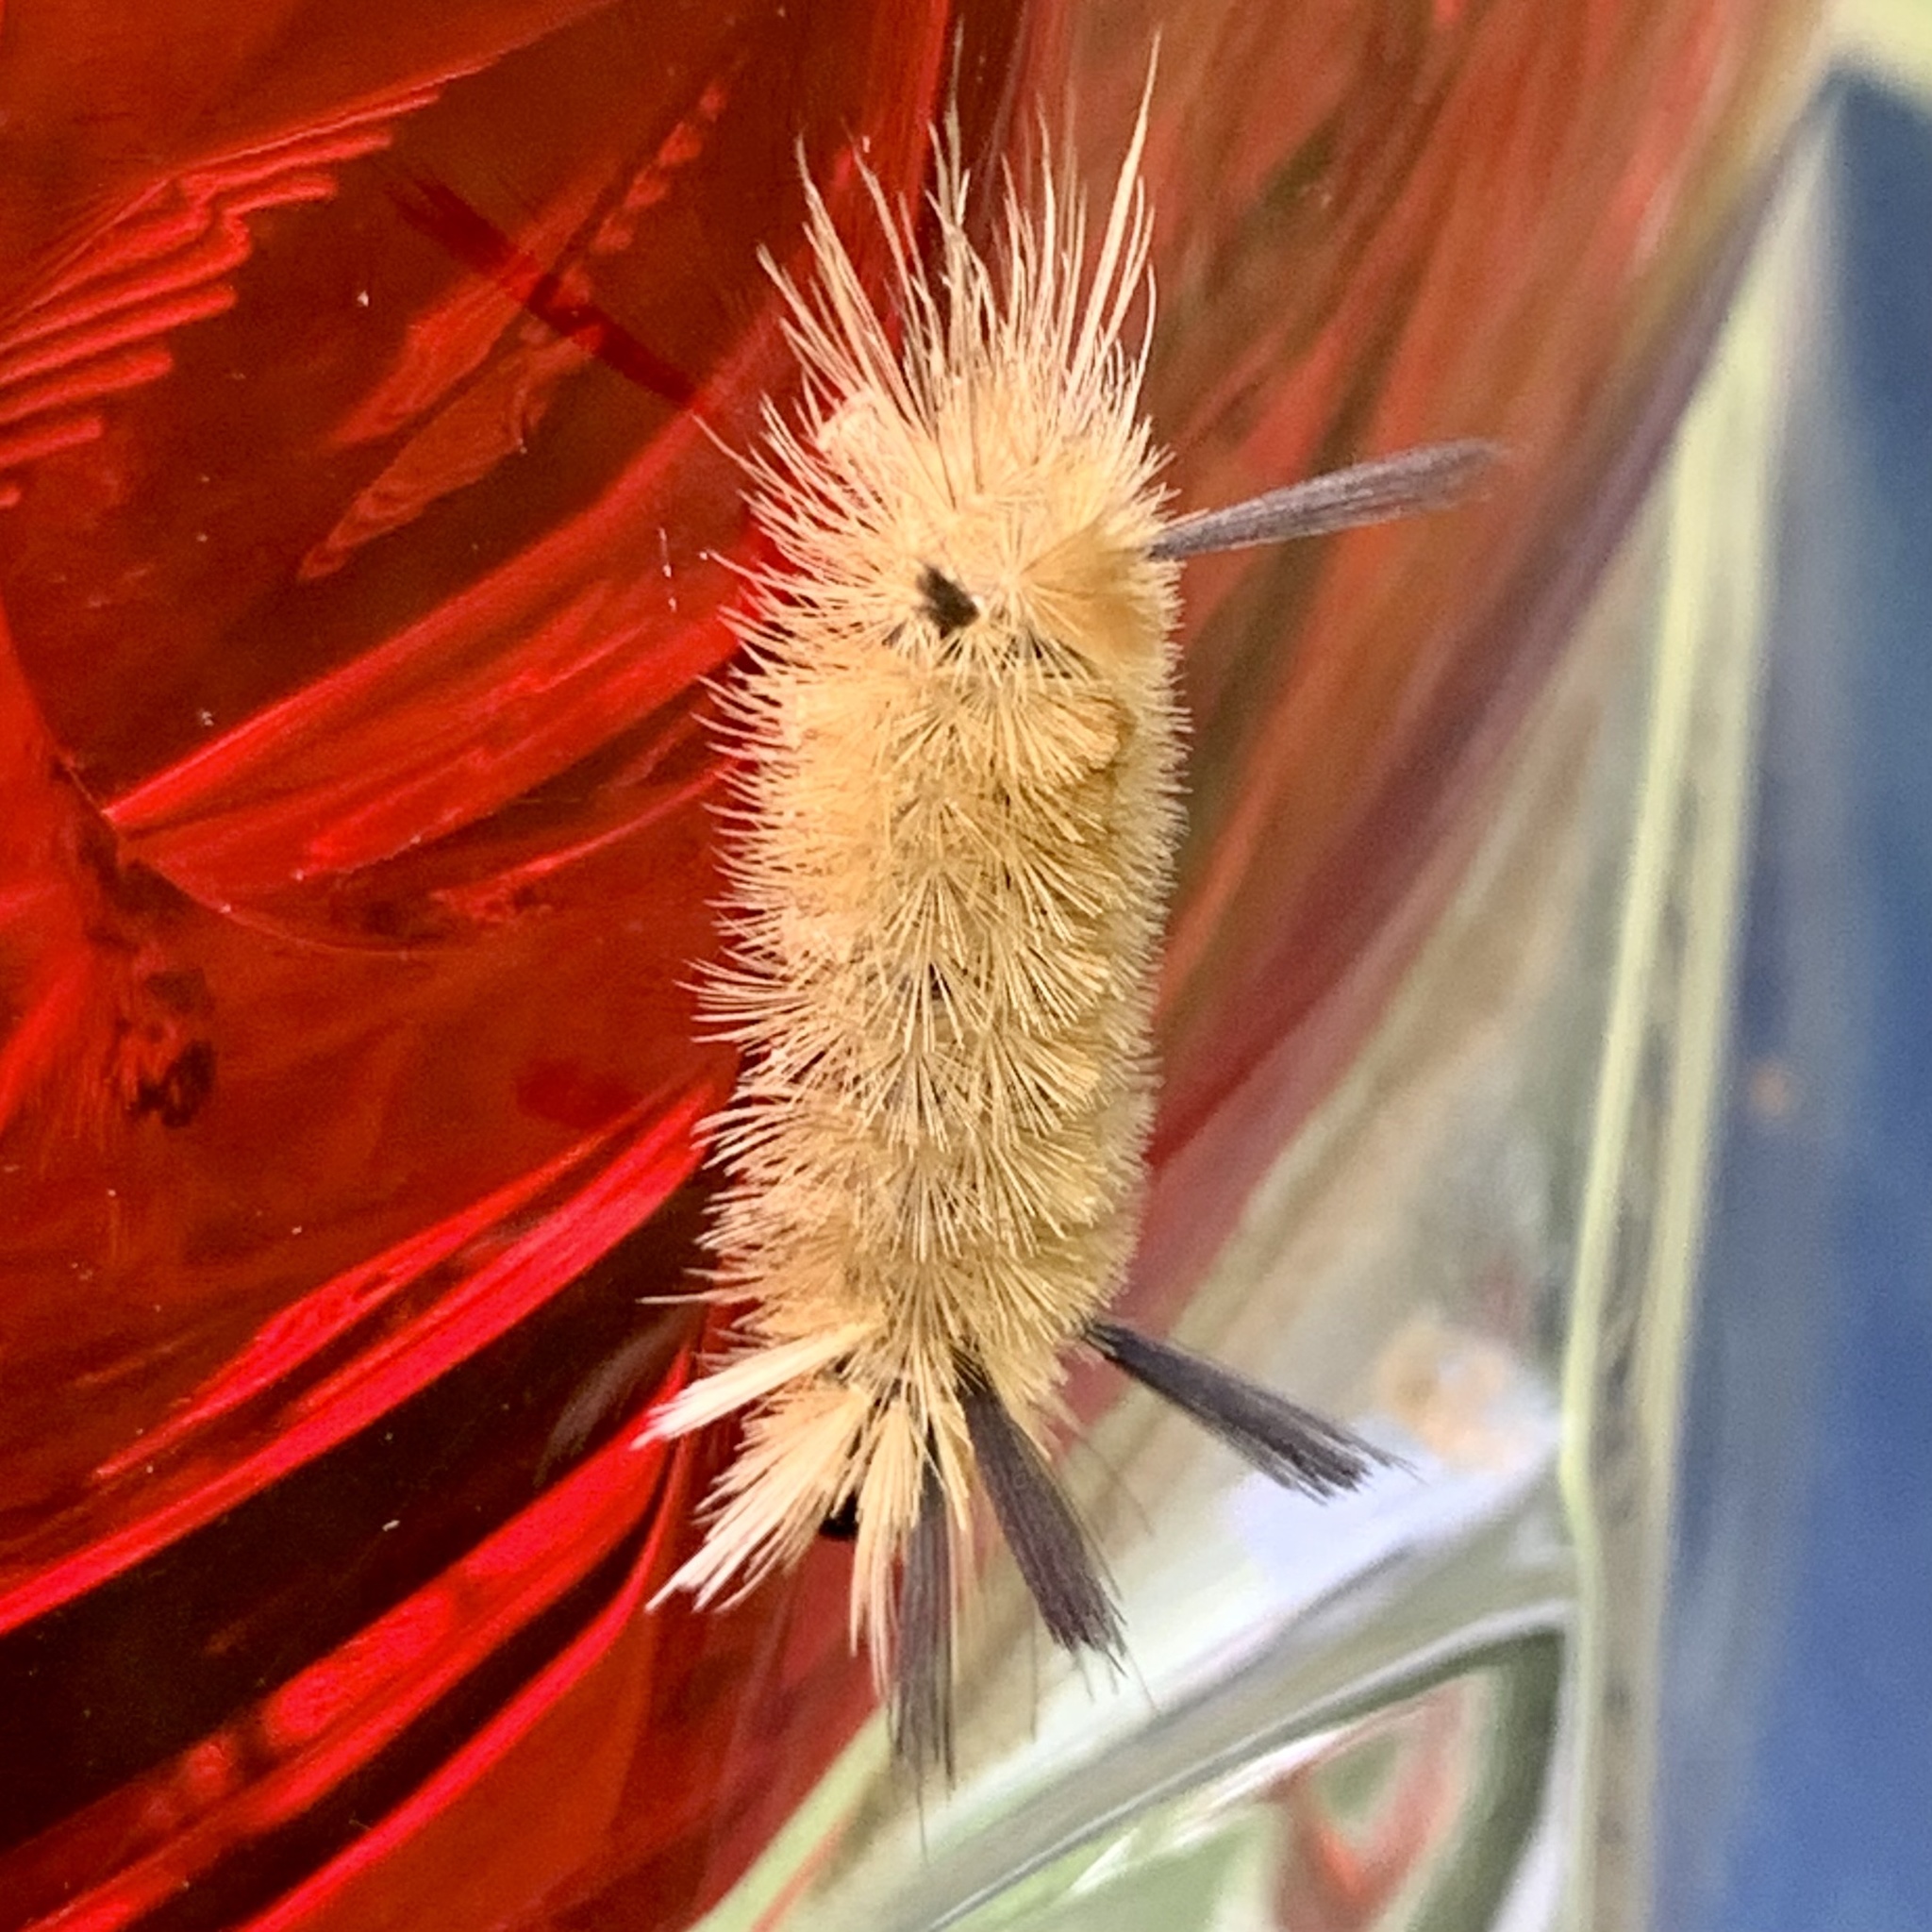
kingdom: Animalia
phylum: Arthropoda
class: Insecta
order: Lepidoptera
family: Erebidae
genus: Halysidota
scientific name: Halysidota tessellaris
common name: Banded tussock moth
